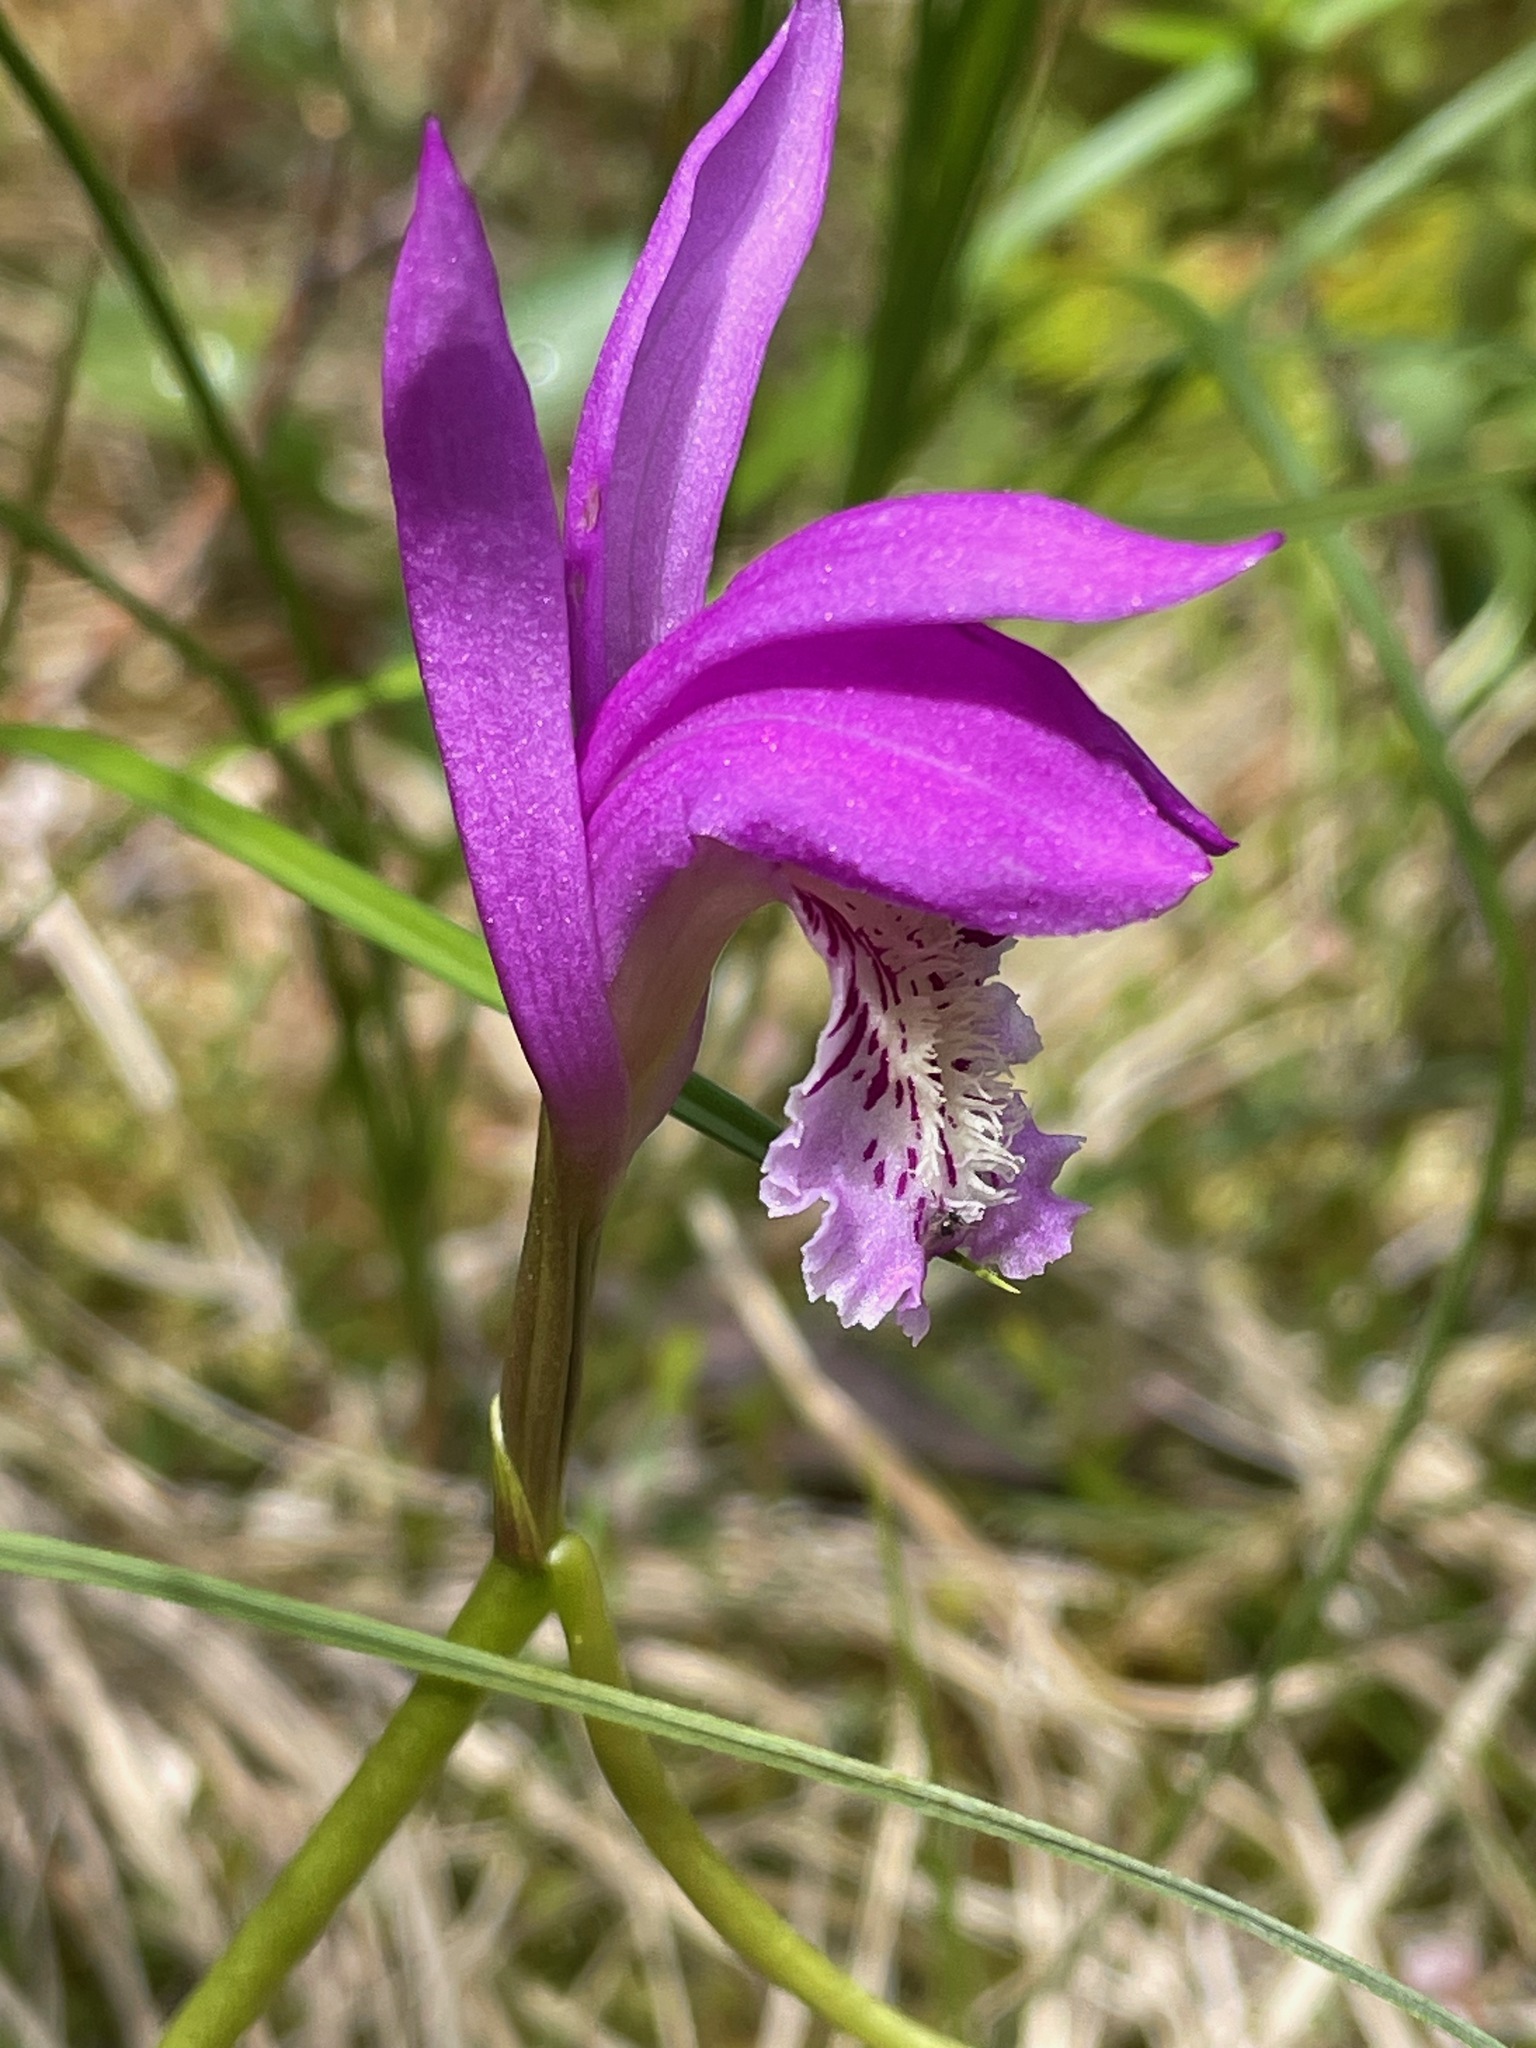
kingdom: Plantae
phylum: Tracheophyta
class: Liliopsida
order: Asparagales
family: Orchidaceae
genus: Arethusa
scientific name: Arethusa bulbosa
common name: Arethusa
